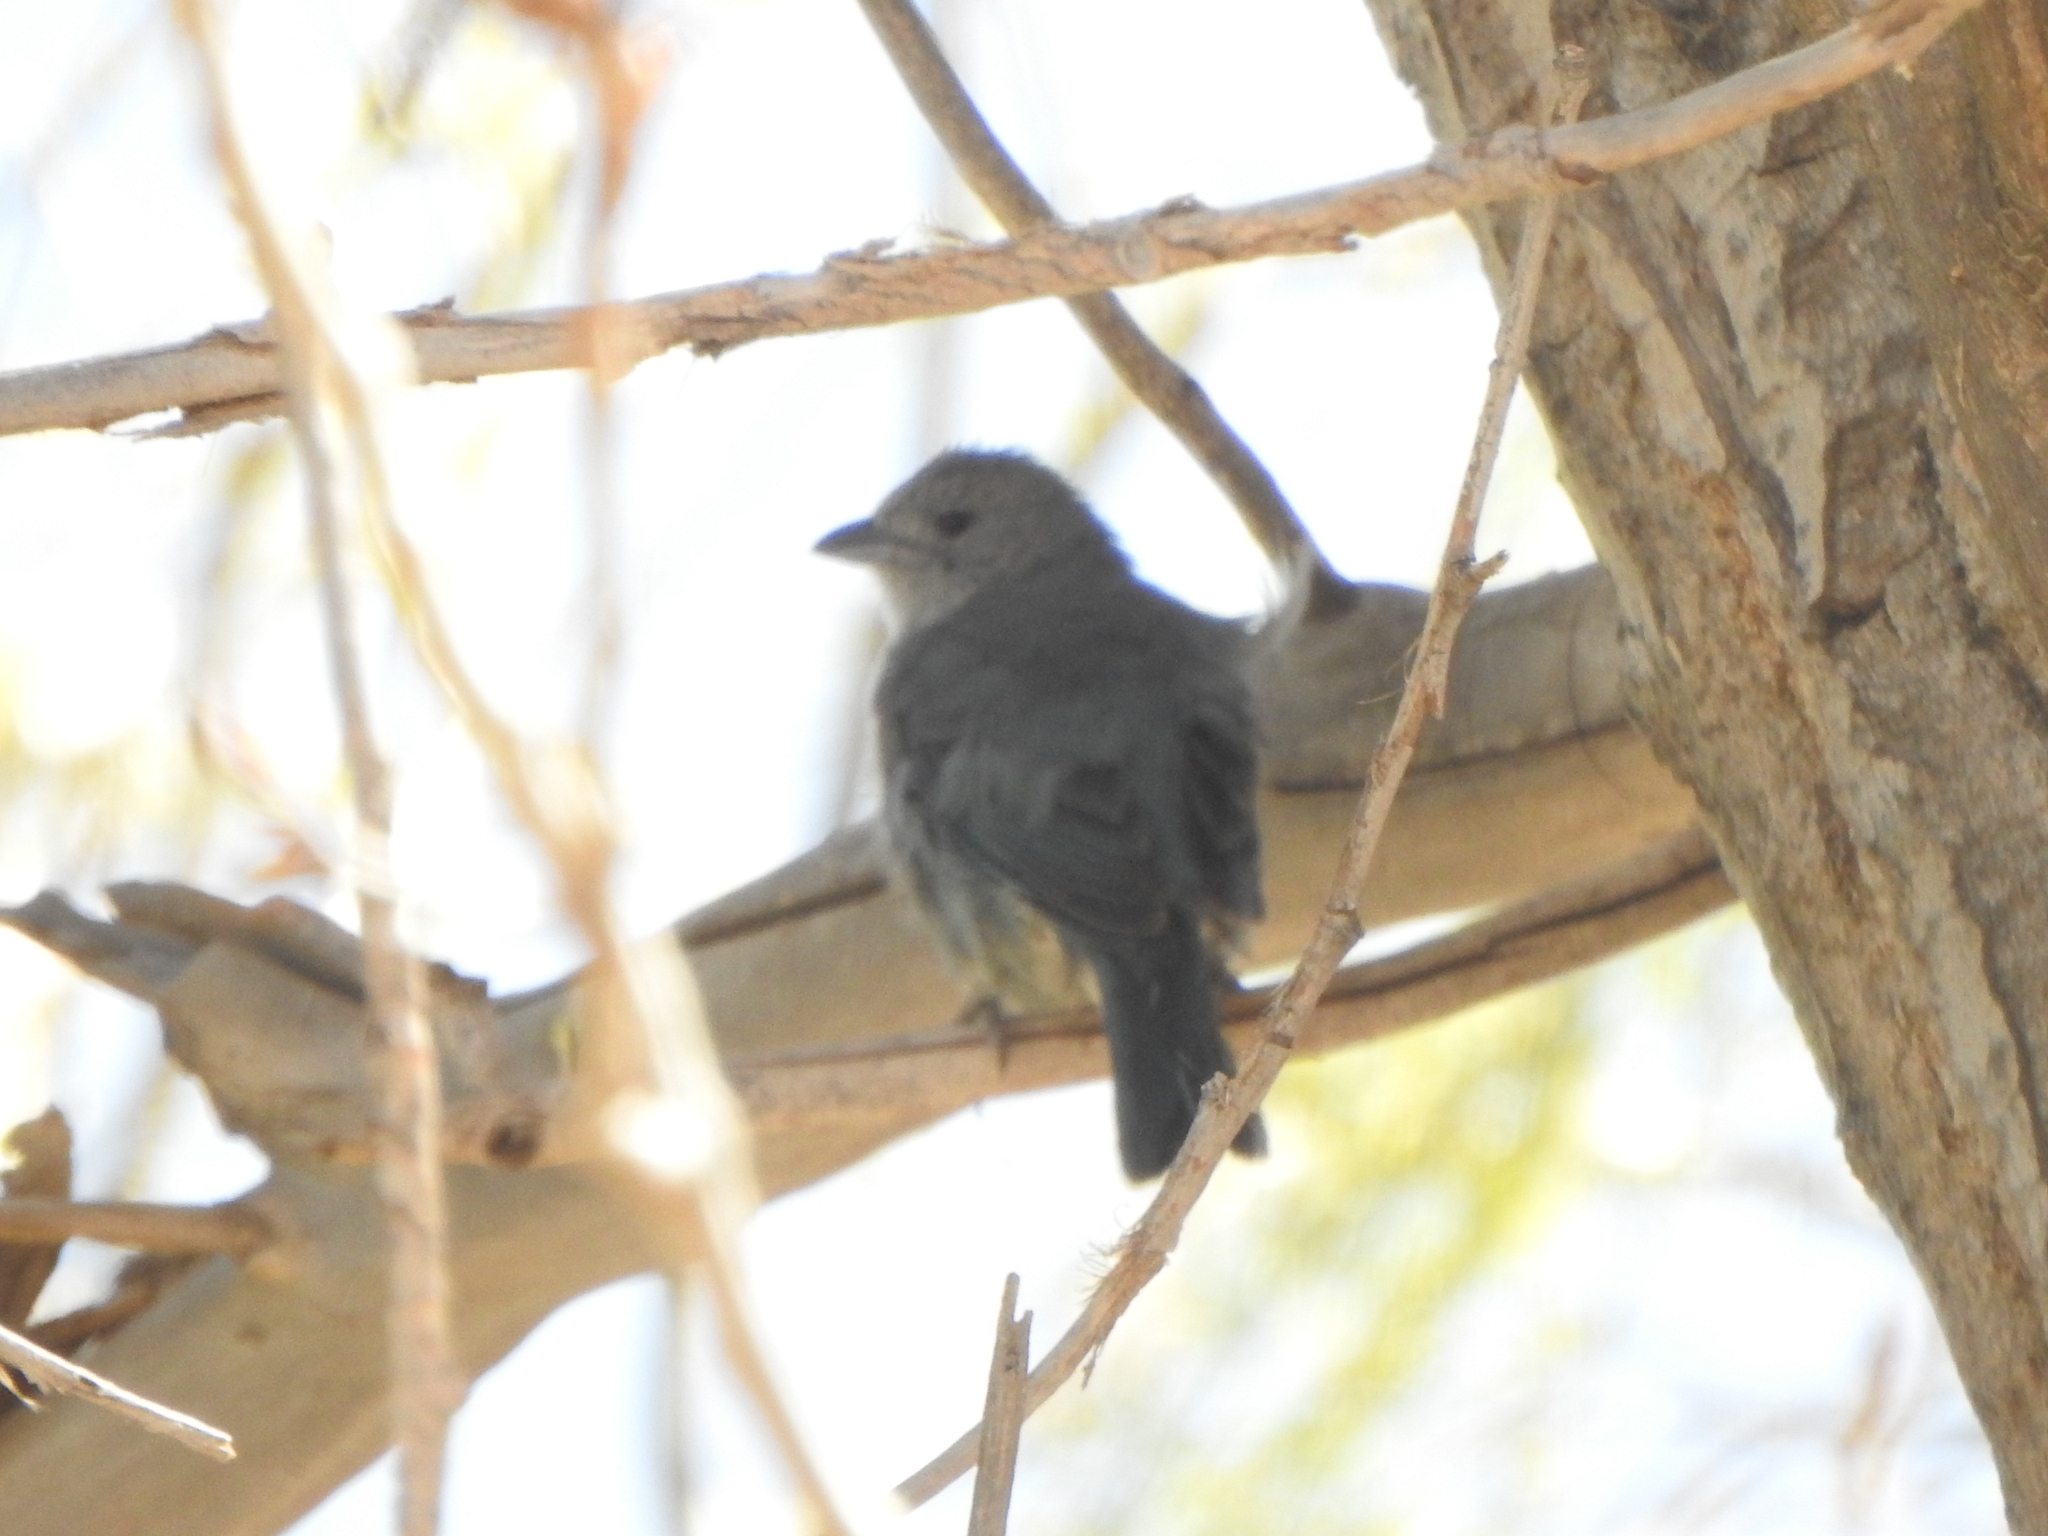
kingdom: Animalia
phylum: Chordata
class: Aves
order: Passeriformes
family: Thraupidae
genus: Thraupis
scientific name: Thraupis sayaca
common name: Sayaca tanager
